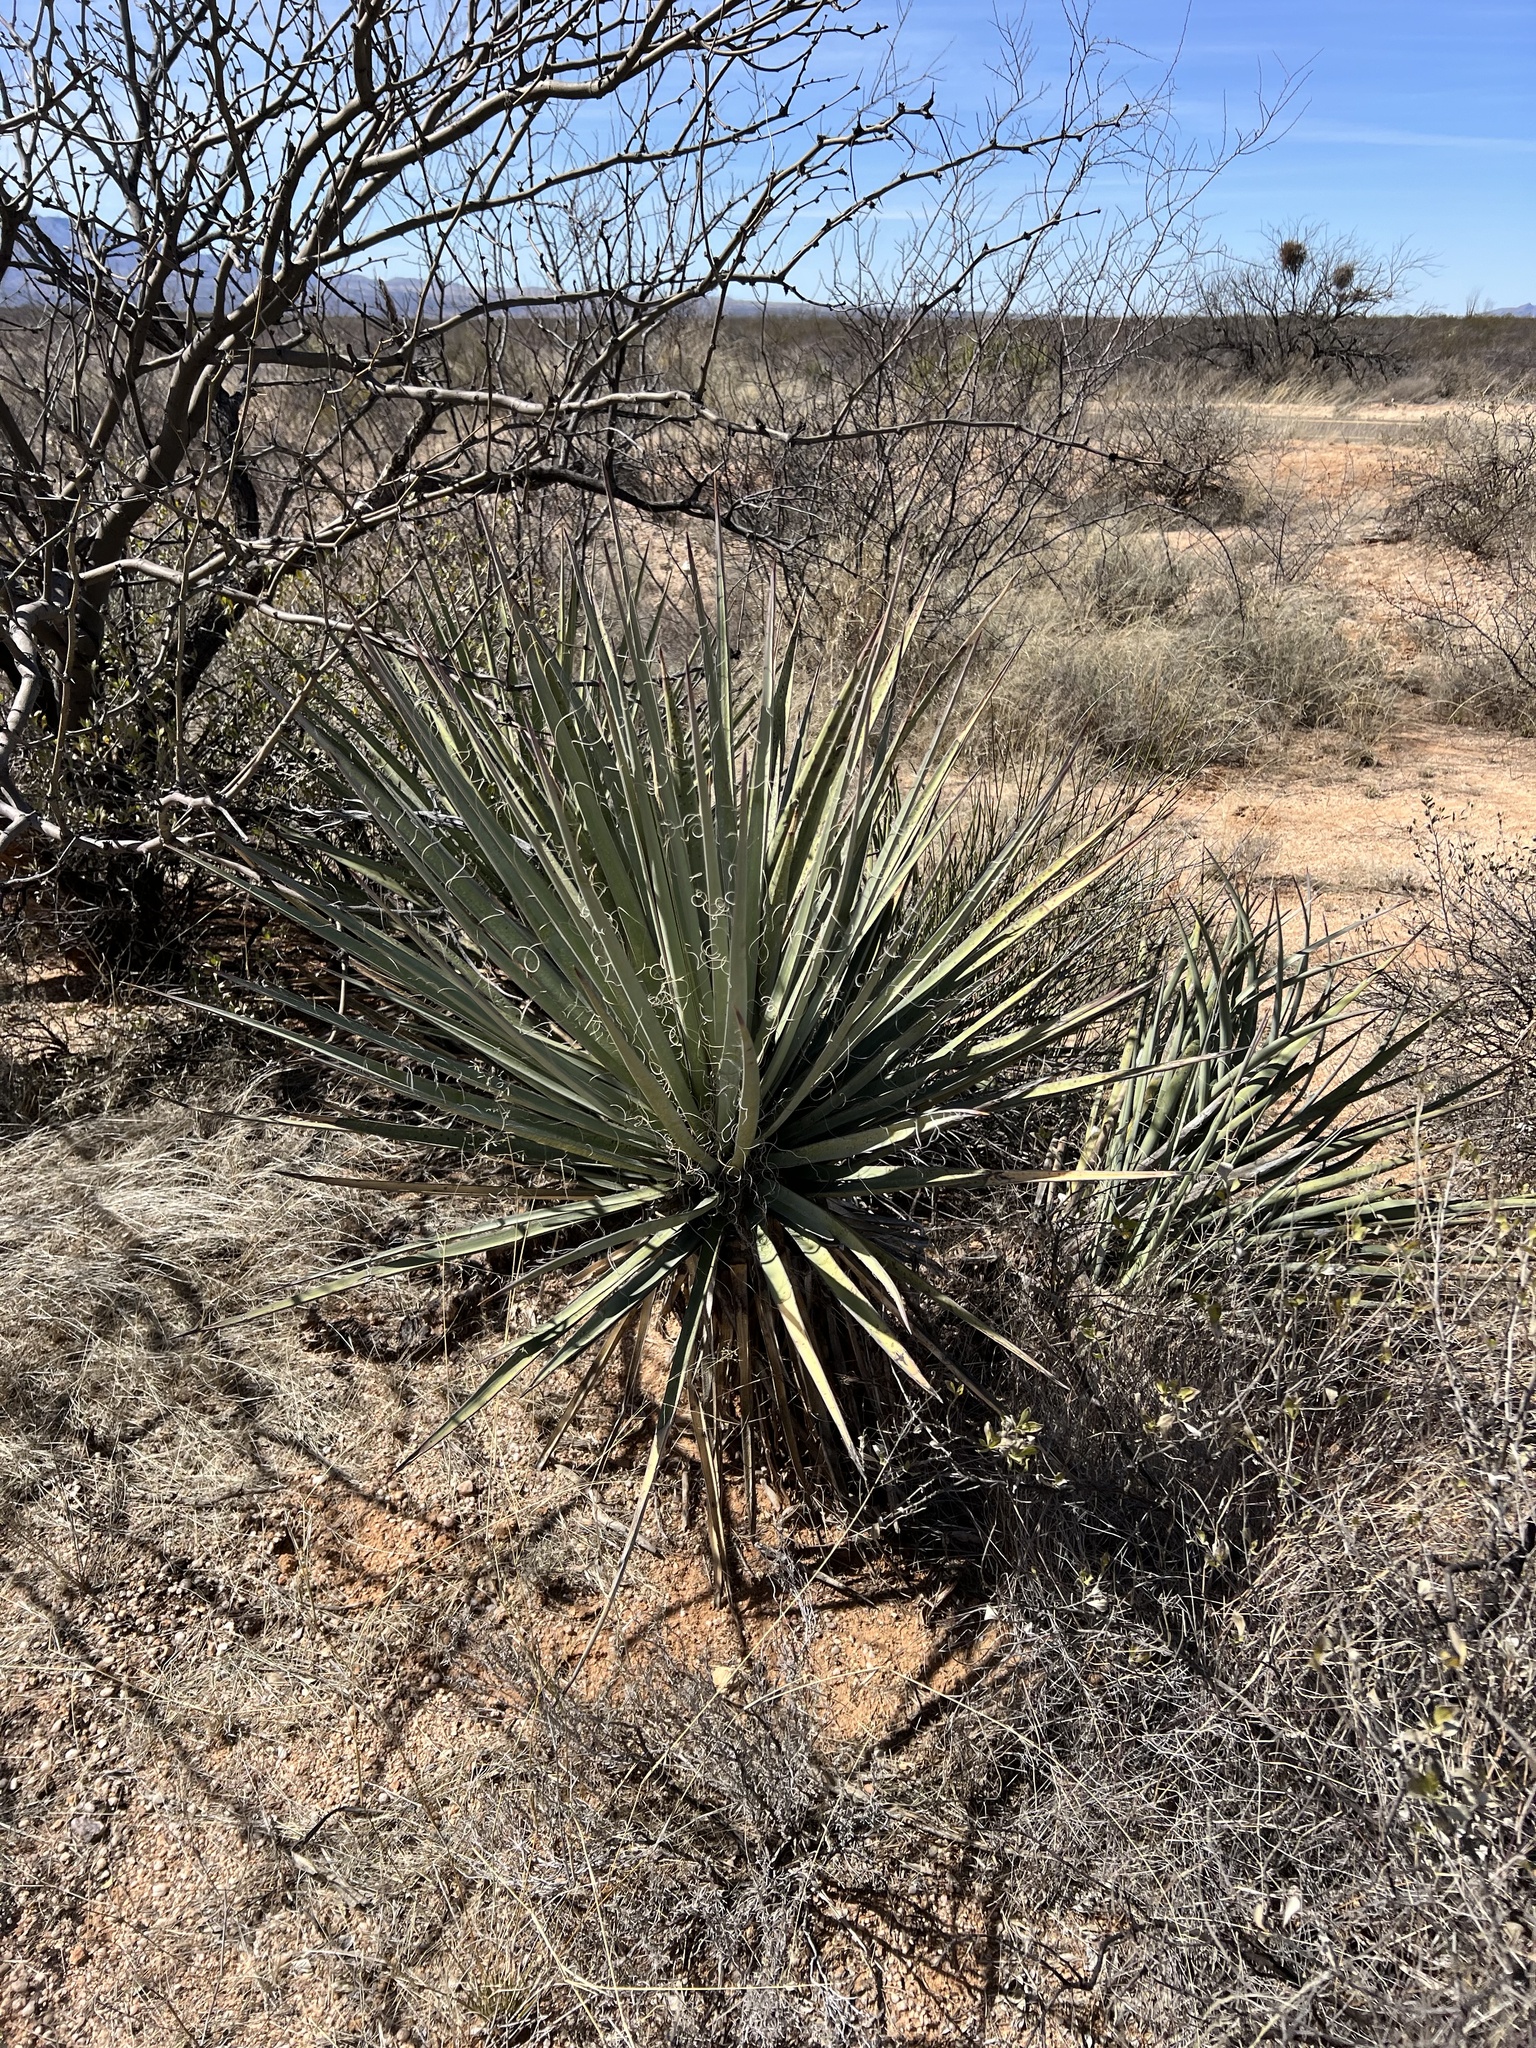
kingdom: Plantae
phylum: Tracheophyta
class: Liliopsida
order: Asparagales
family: Asparagaceae
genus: Yucca
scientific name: Yucca baccata
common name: Banana yucca
